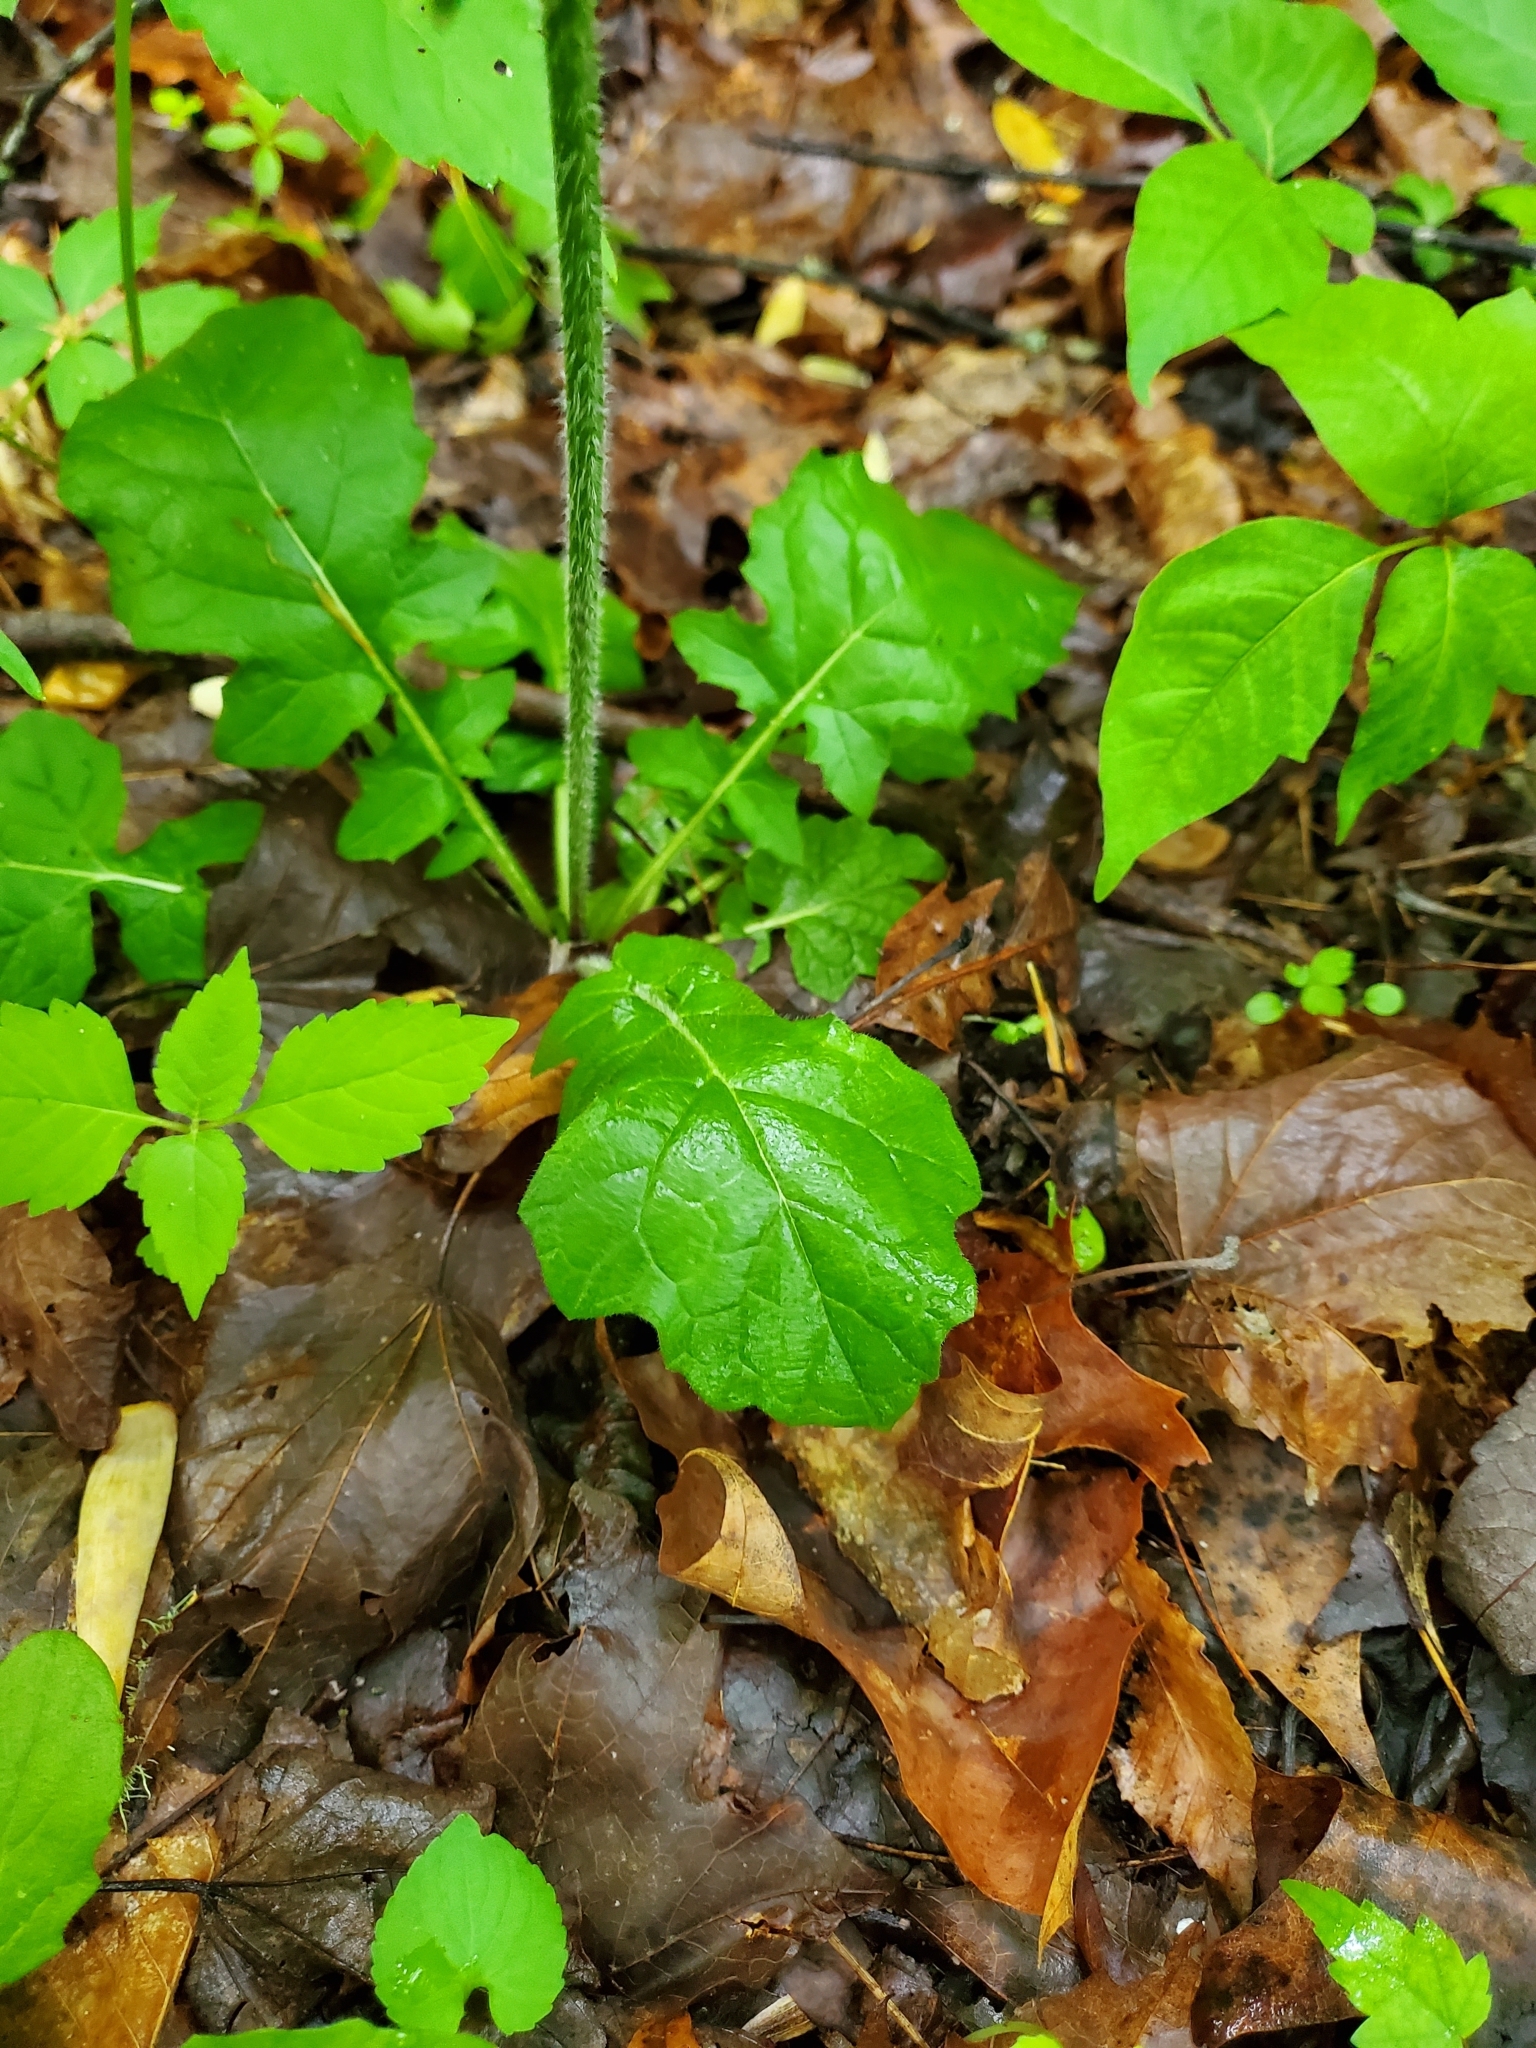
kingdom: Plantae
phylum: Tracheophyta
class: Magnoliopsida
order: Lamiales
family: Lamiaceae
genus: Salvia
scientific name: Salvia lyrata
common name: Cancerweed
